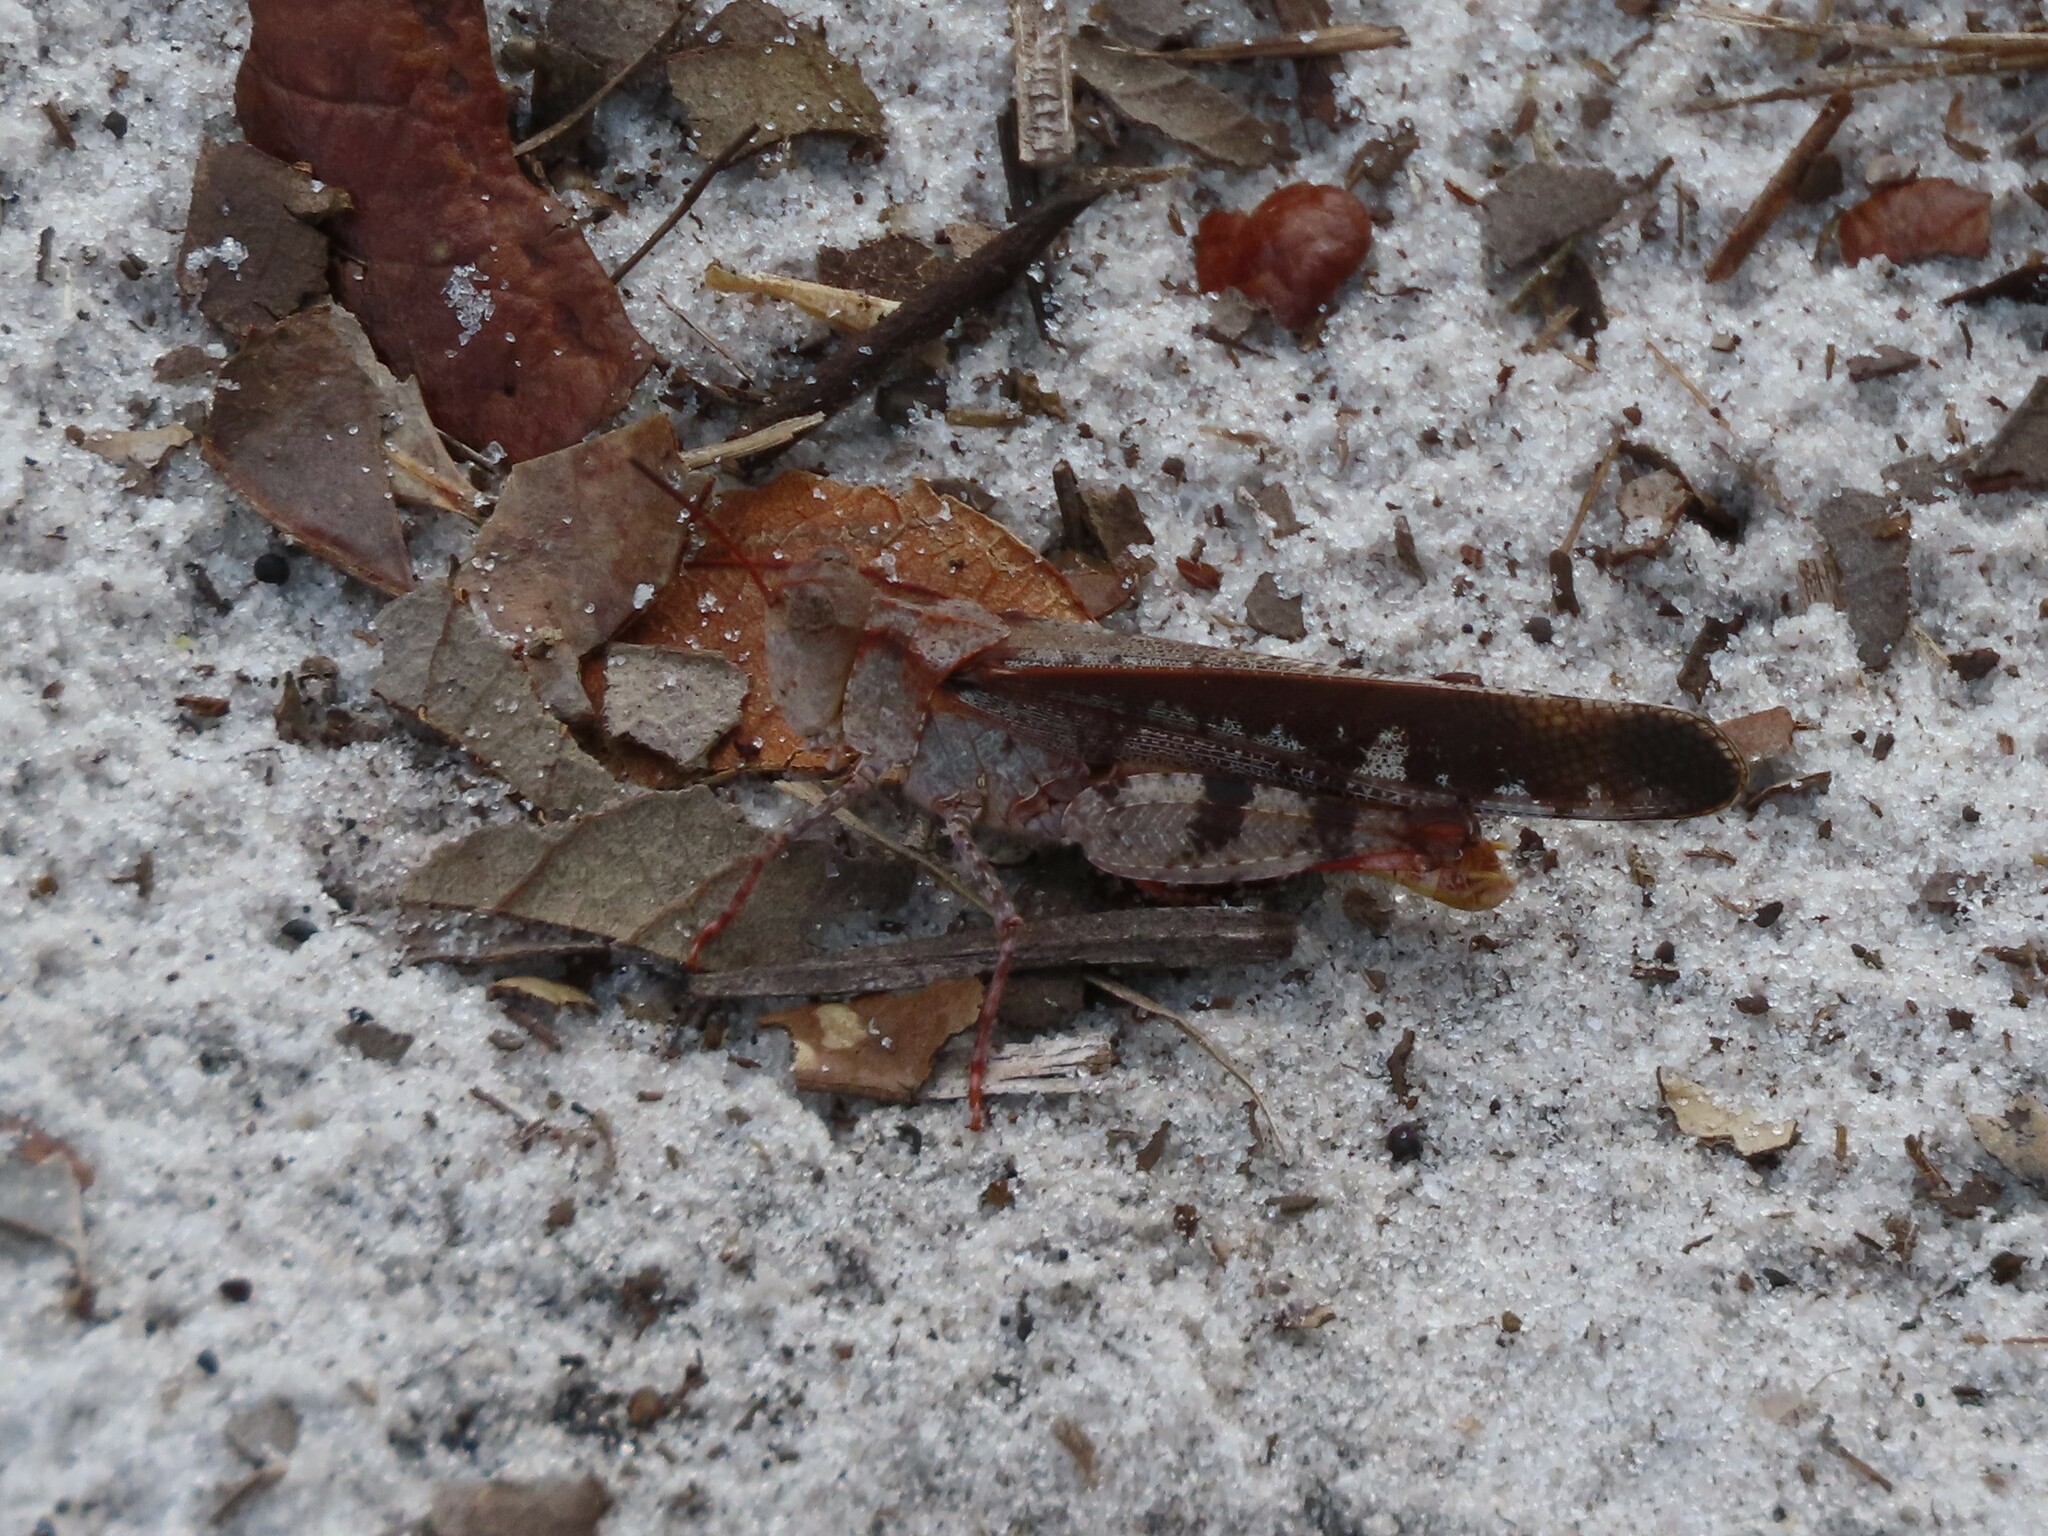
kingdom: Animalia
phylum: Arthropoda
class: Insecta
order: Orthoptera
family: Acrididae
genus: Spharagemon
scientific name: Spharagemon marmoratum
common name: Marbled grasshopper
